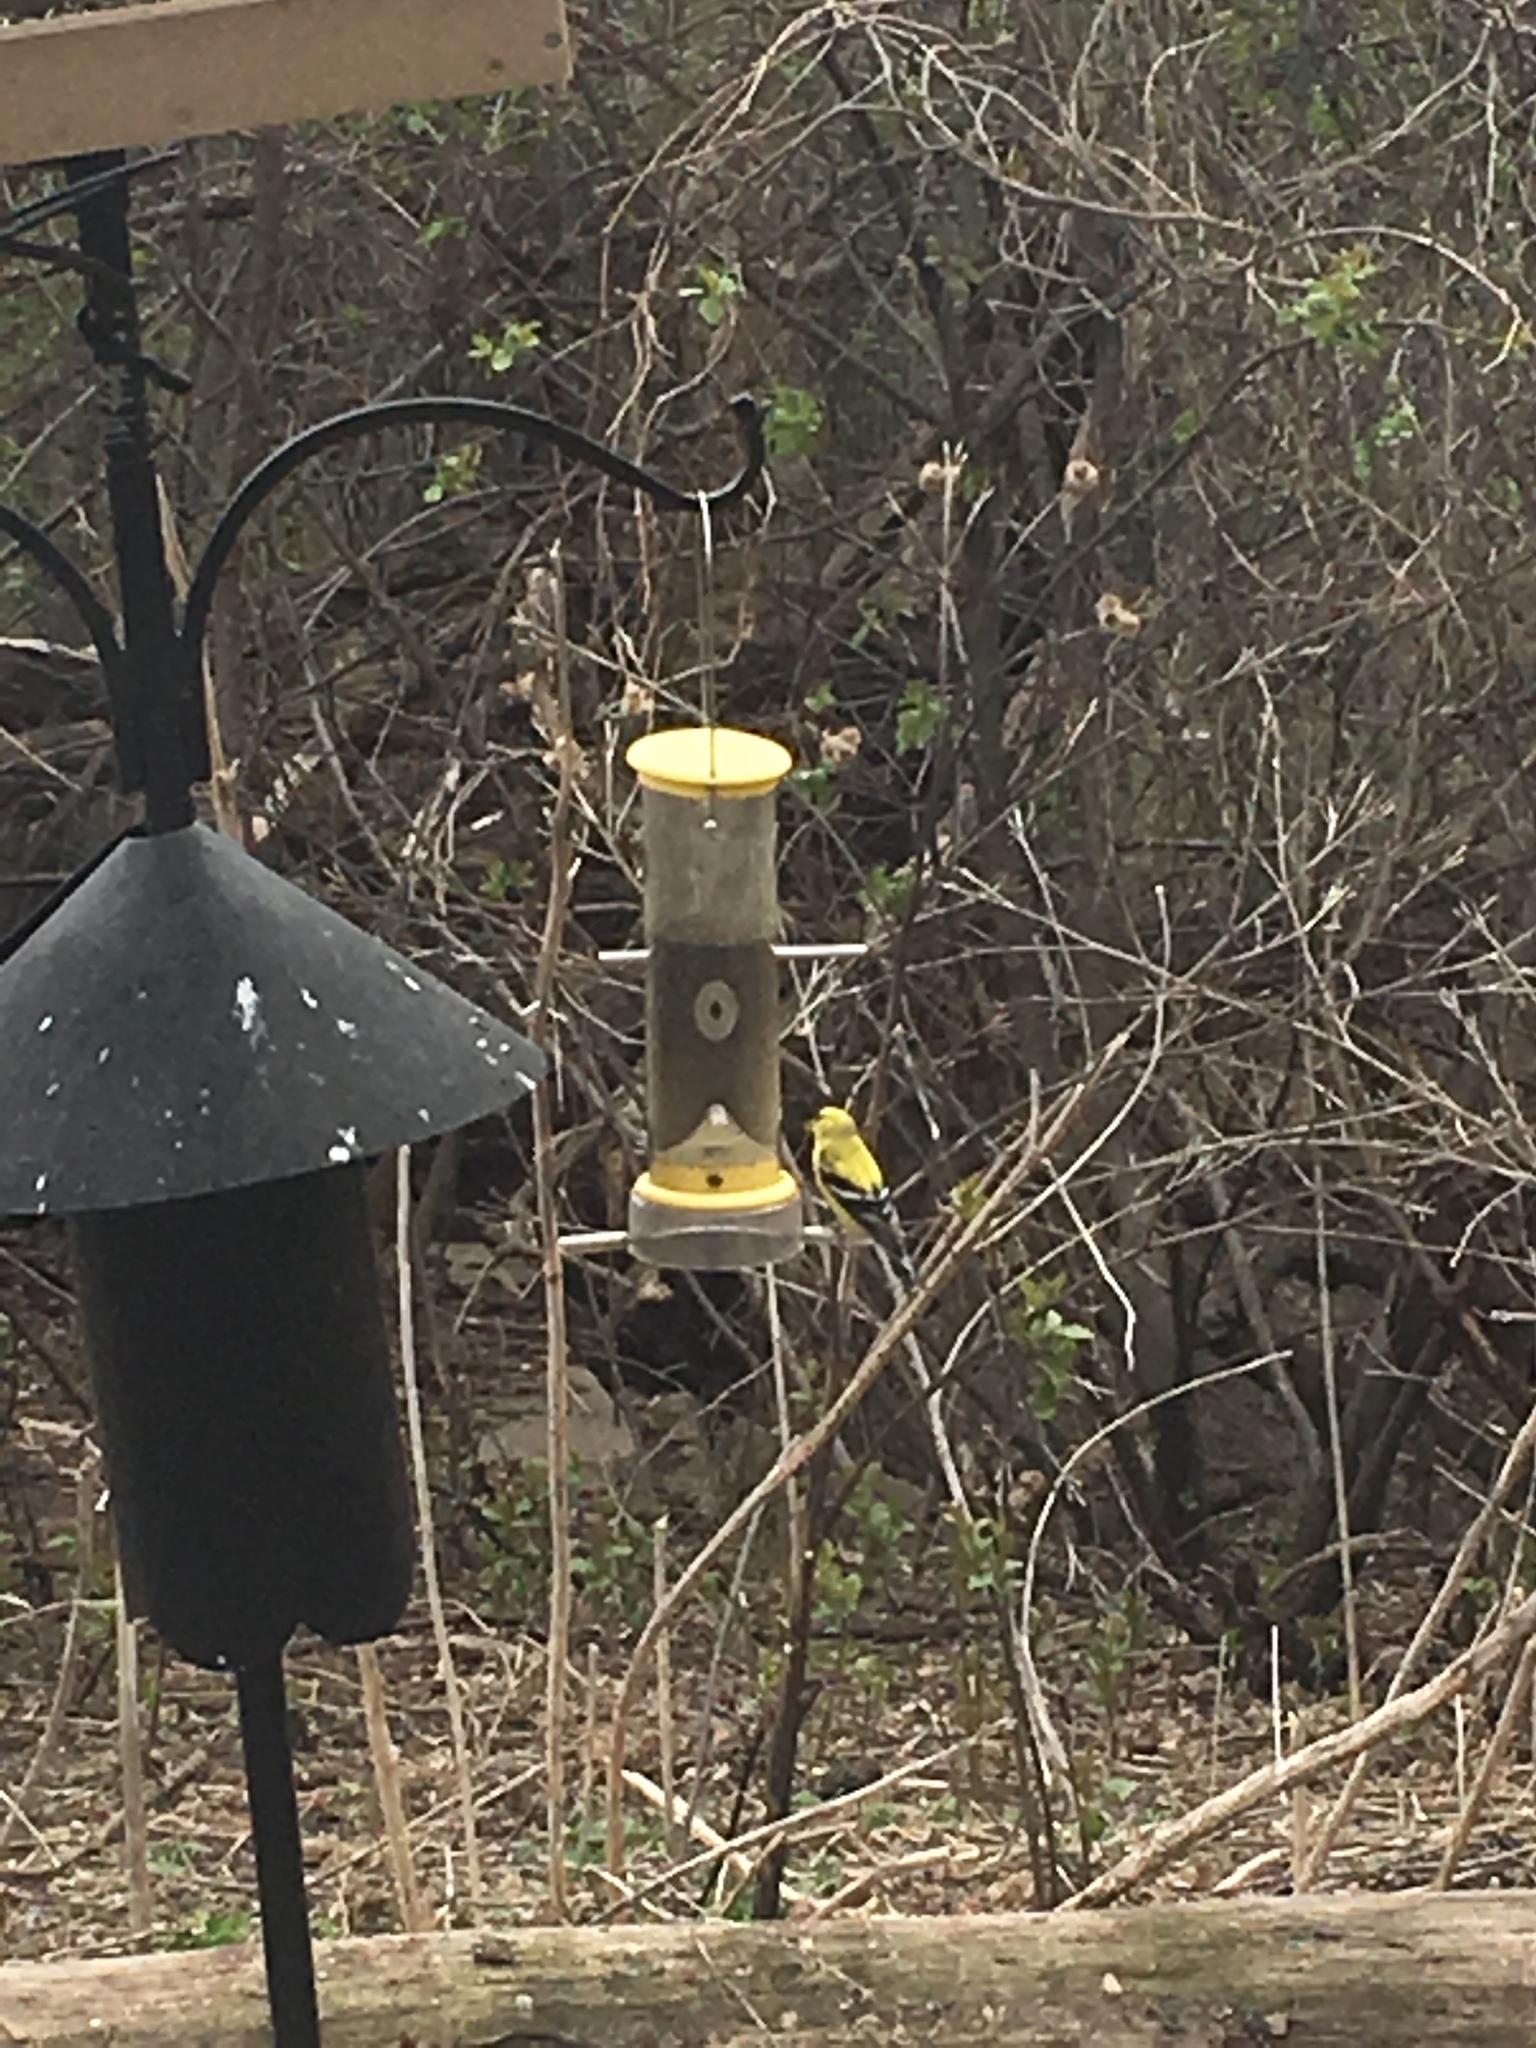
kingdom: Animalia
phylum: Chordata
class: Aves
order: Passeriformes
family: Fringillidae
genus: Spinus
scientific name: Spinus tristis
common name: American goldfinch
